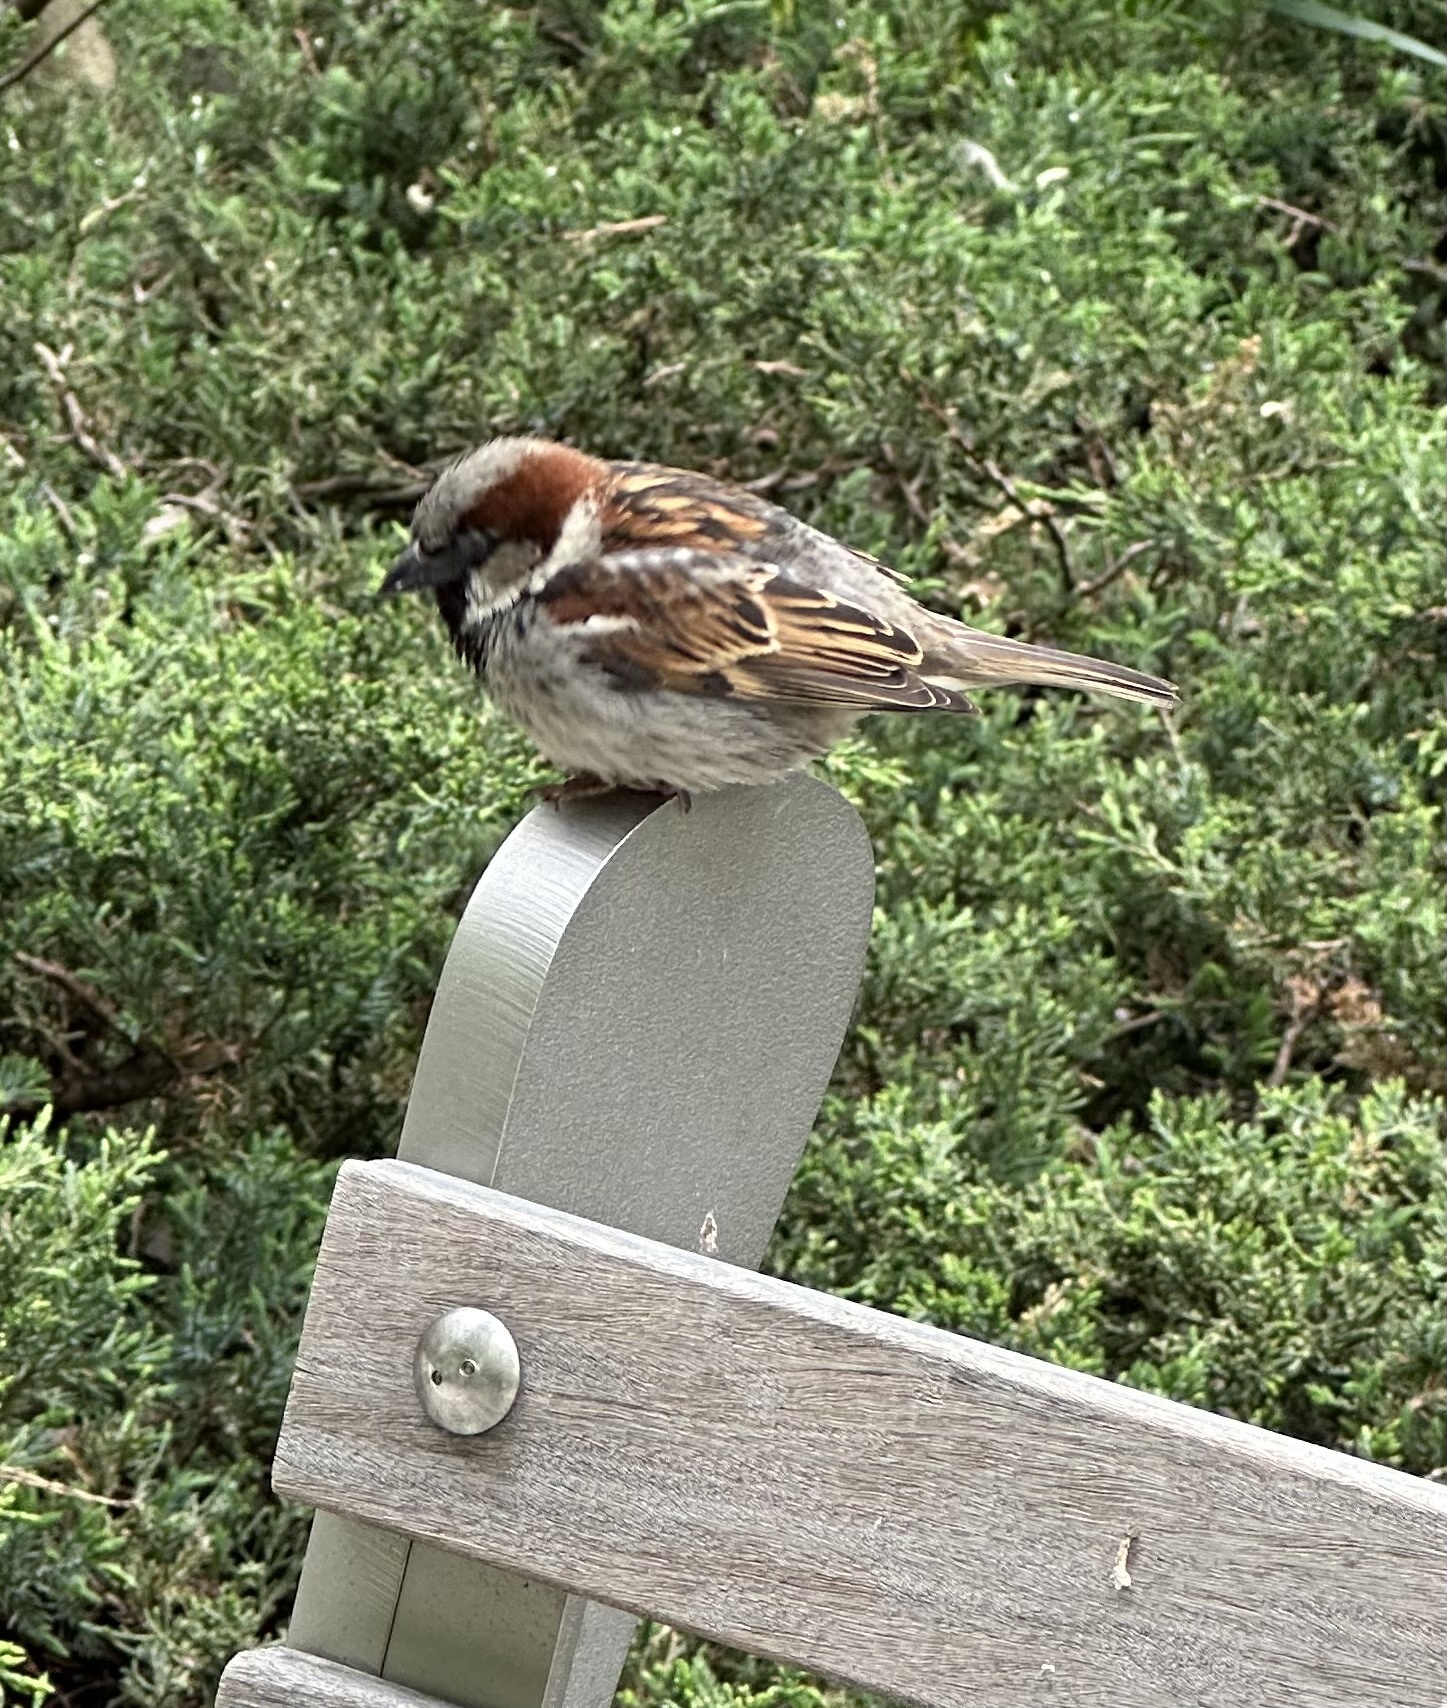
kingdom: Animalia
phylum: Chordata
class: Aves
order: Passeriformes
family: Passeridae
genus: Passer
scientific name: Passer domesticus
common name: House sparrow
